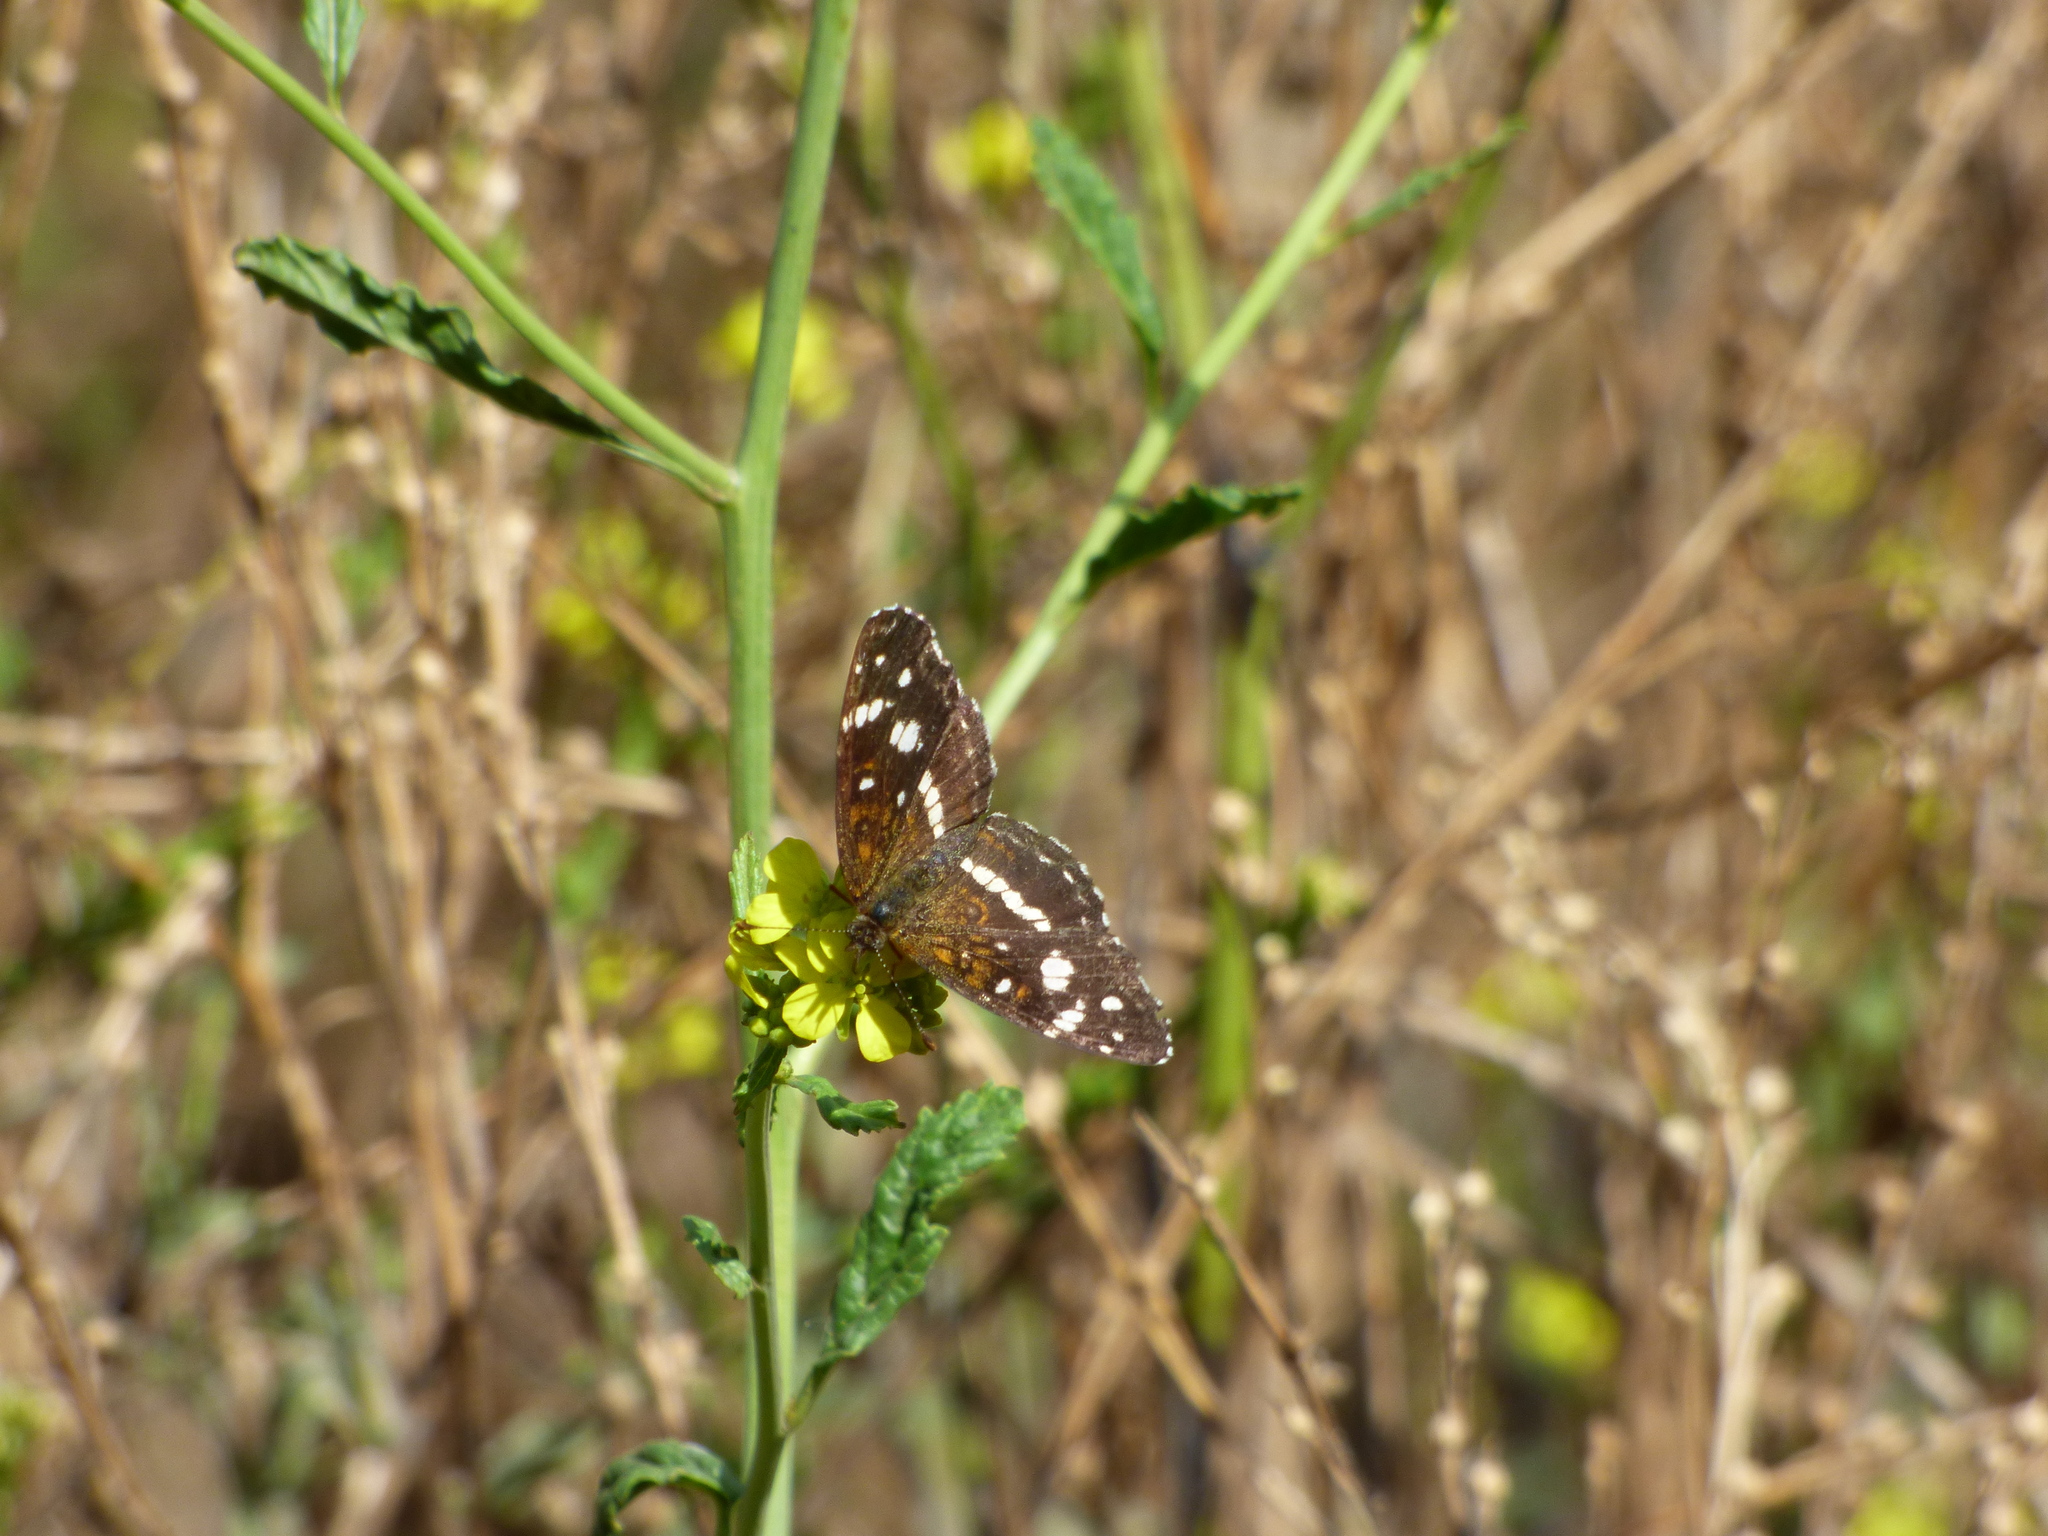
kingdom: Animalia
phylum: Arthropoda
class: Insecta
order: Lepidoptera
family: Nymphalidae
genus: Ortilia
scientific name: Ortilia ithra
